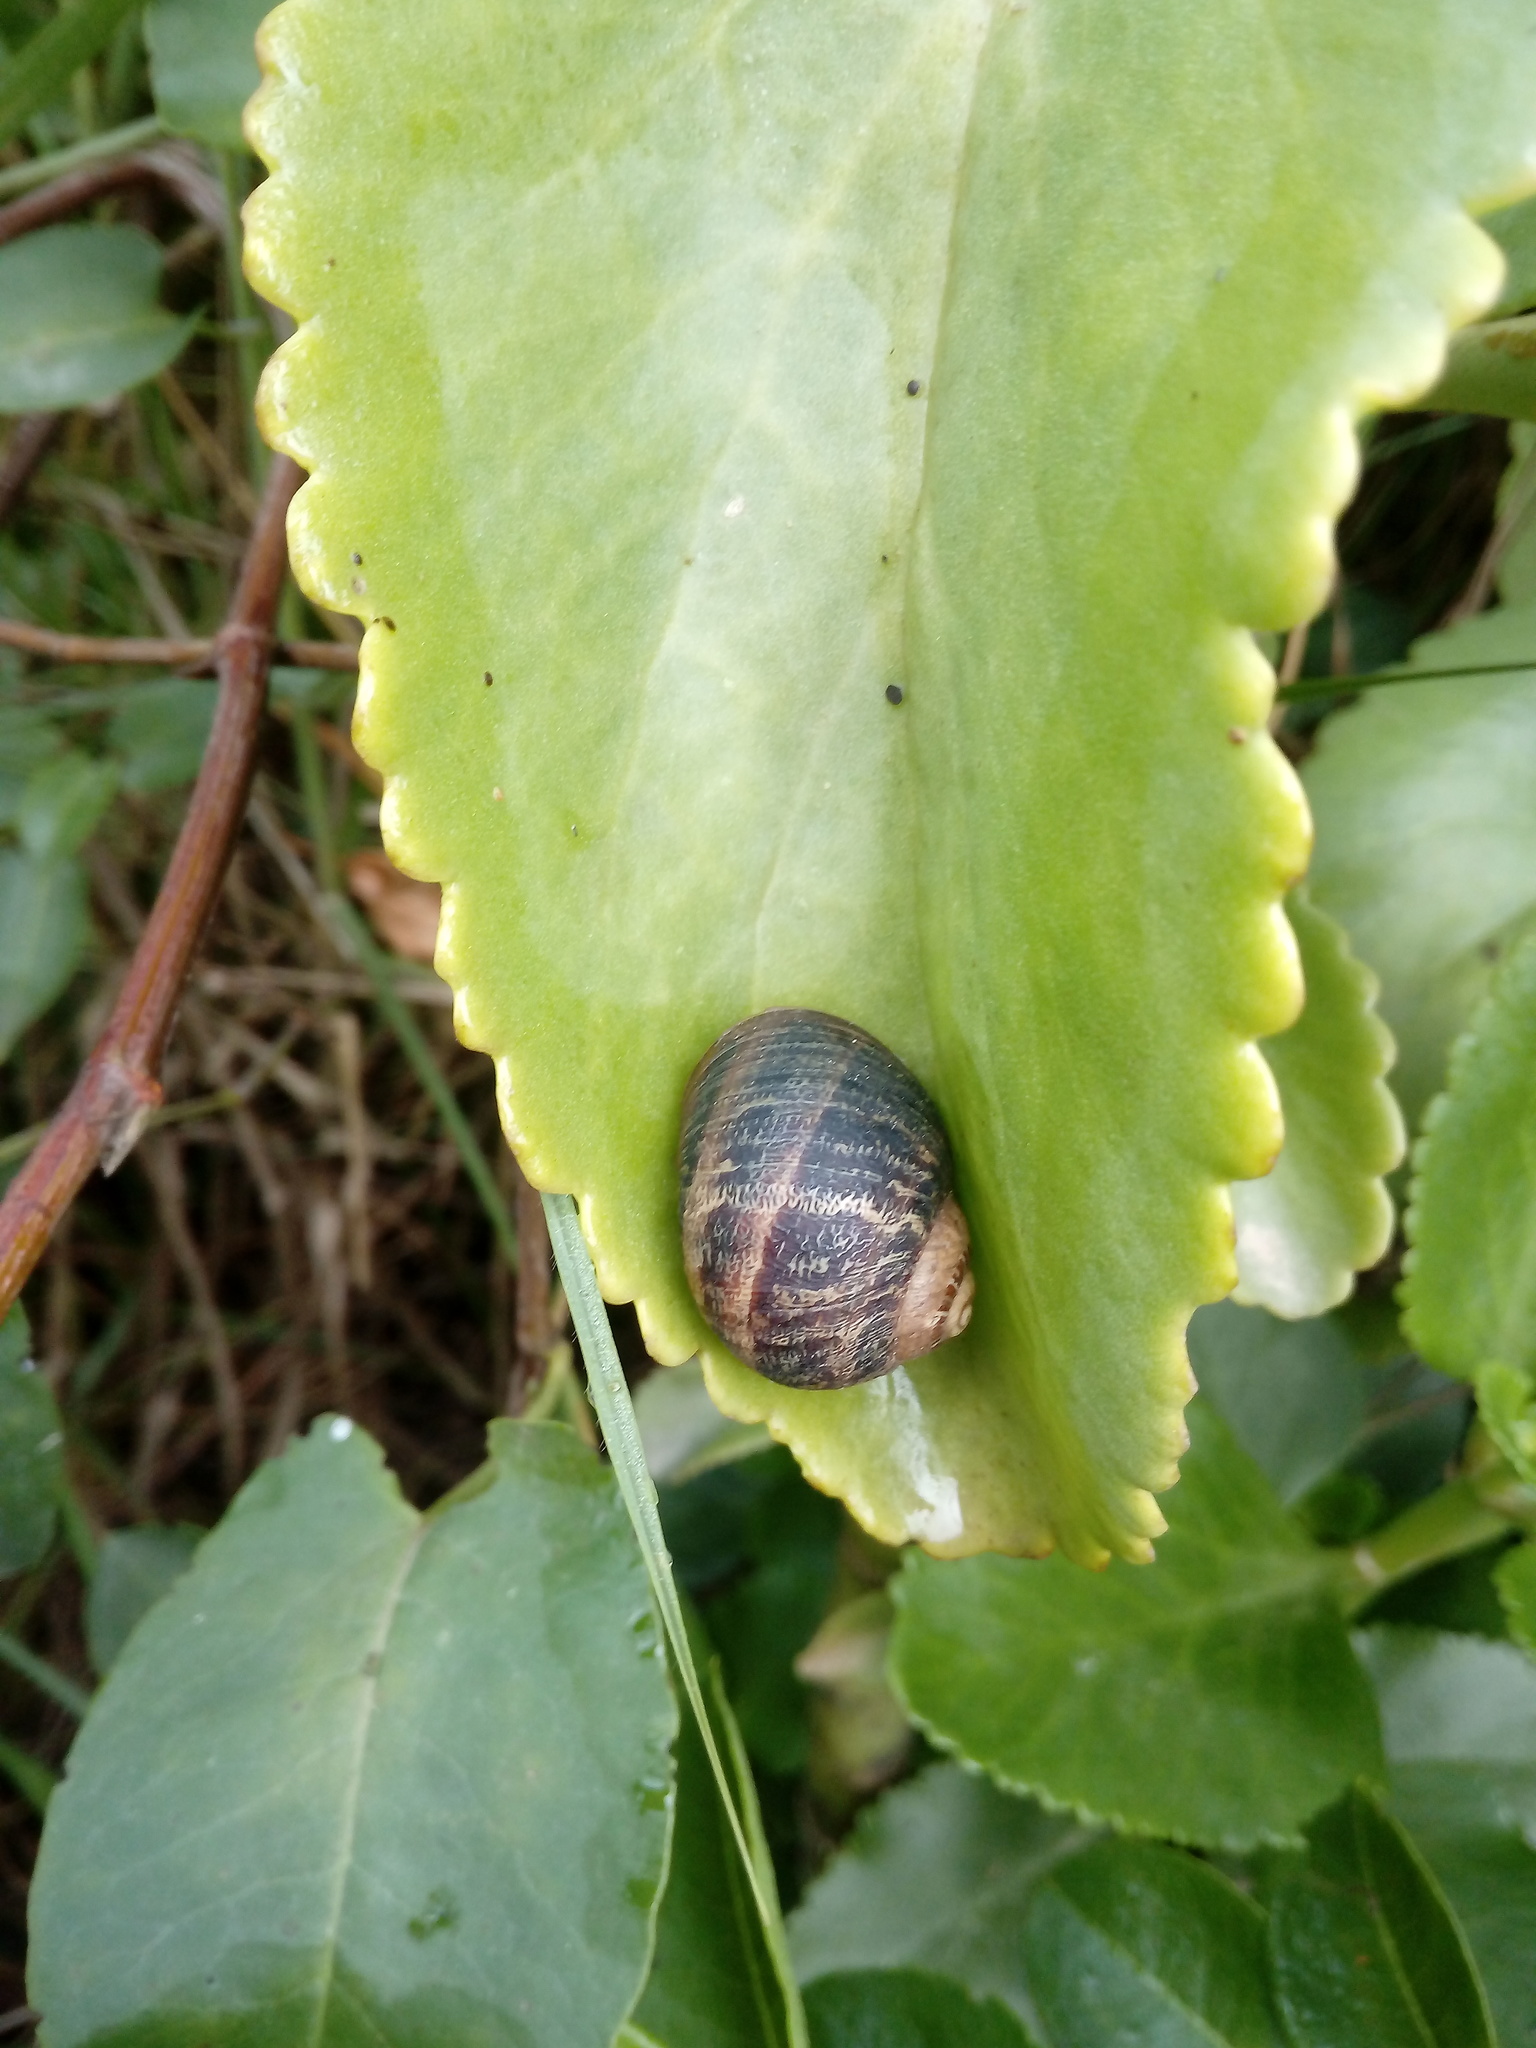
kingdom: Animalia
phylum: Mollusca
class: Gastropoda
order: Stylommatophora
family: Helicidae
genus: Cornu
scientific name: Cornu aspersum
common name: Brown garden snail
